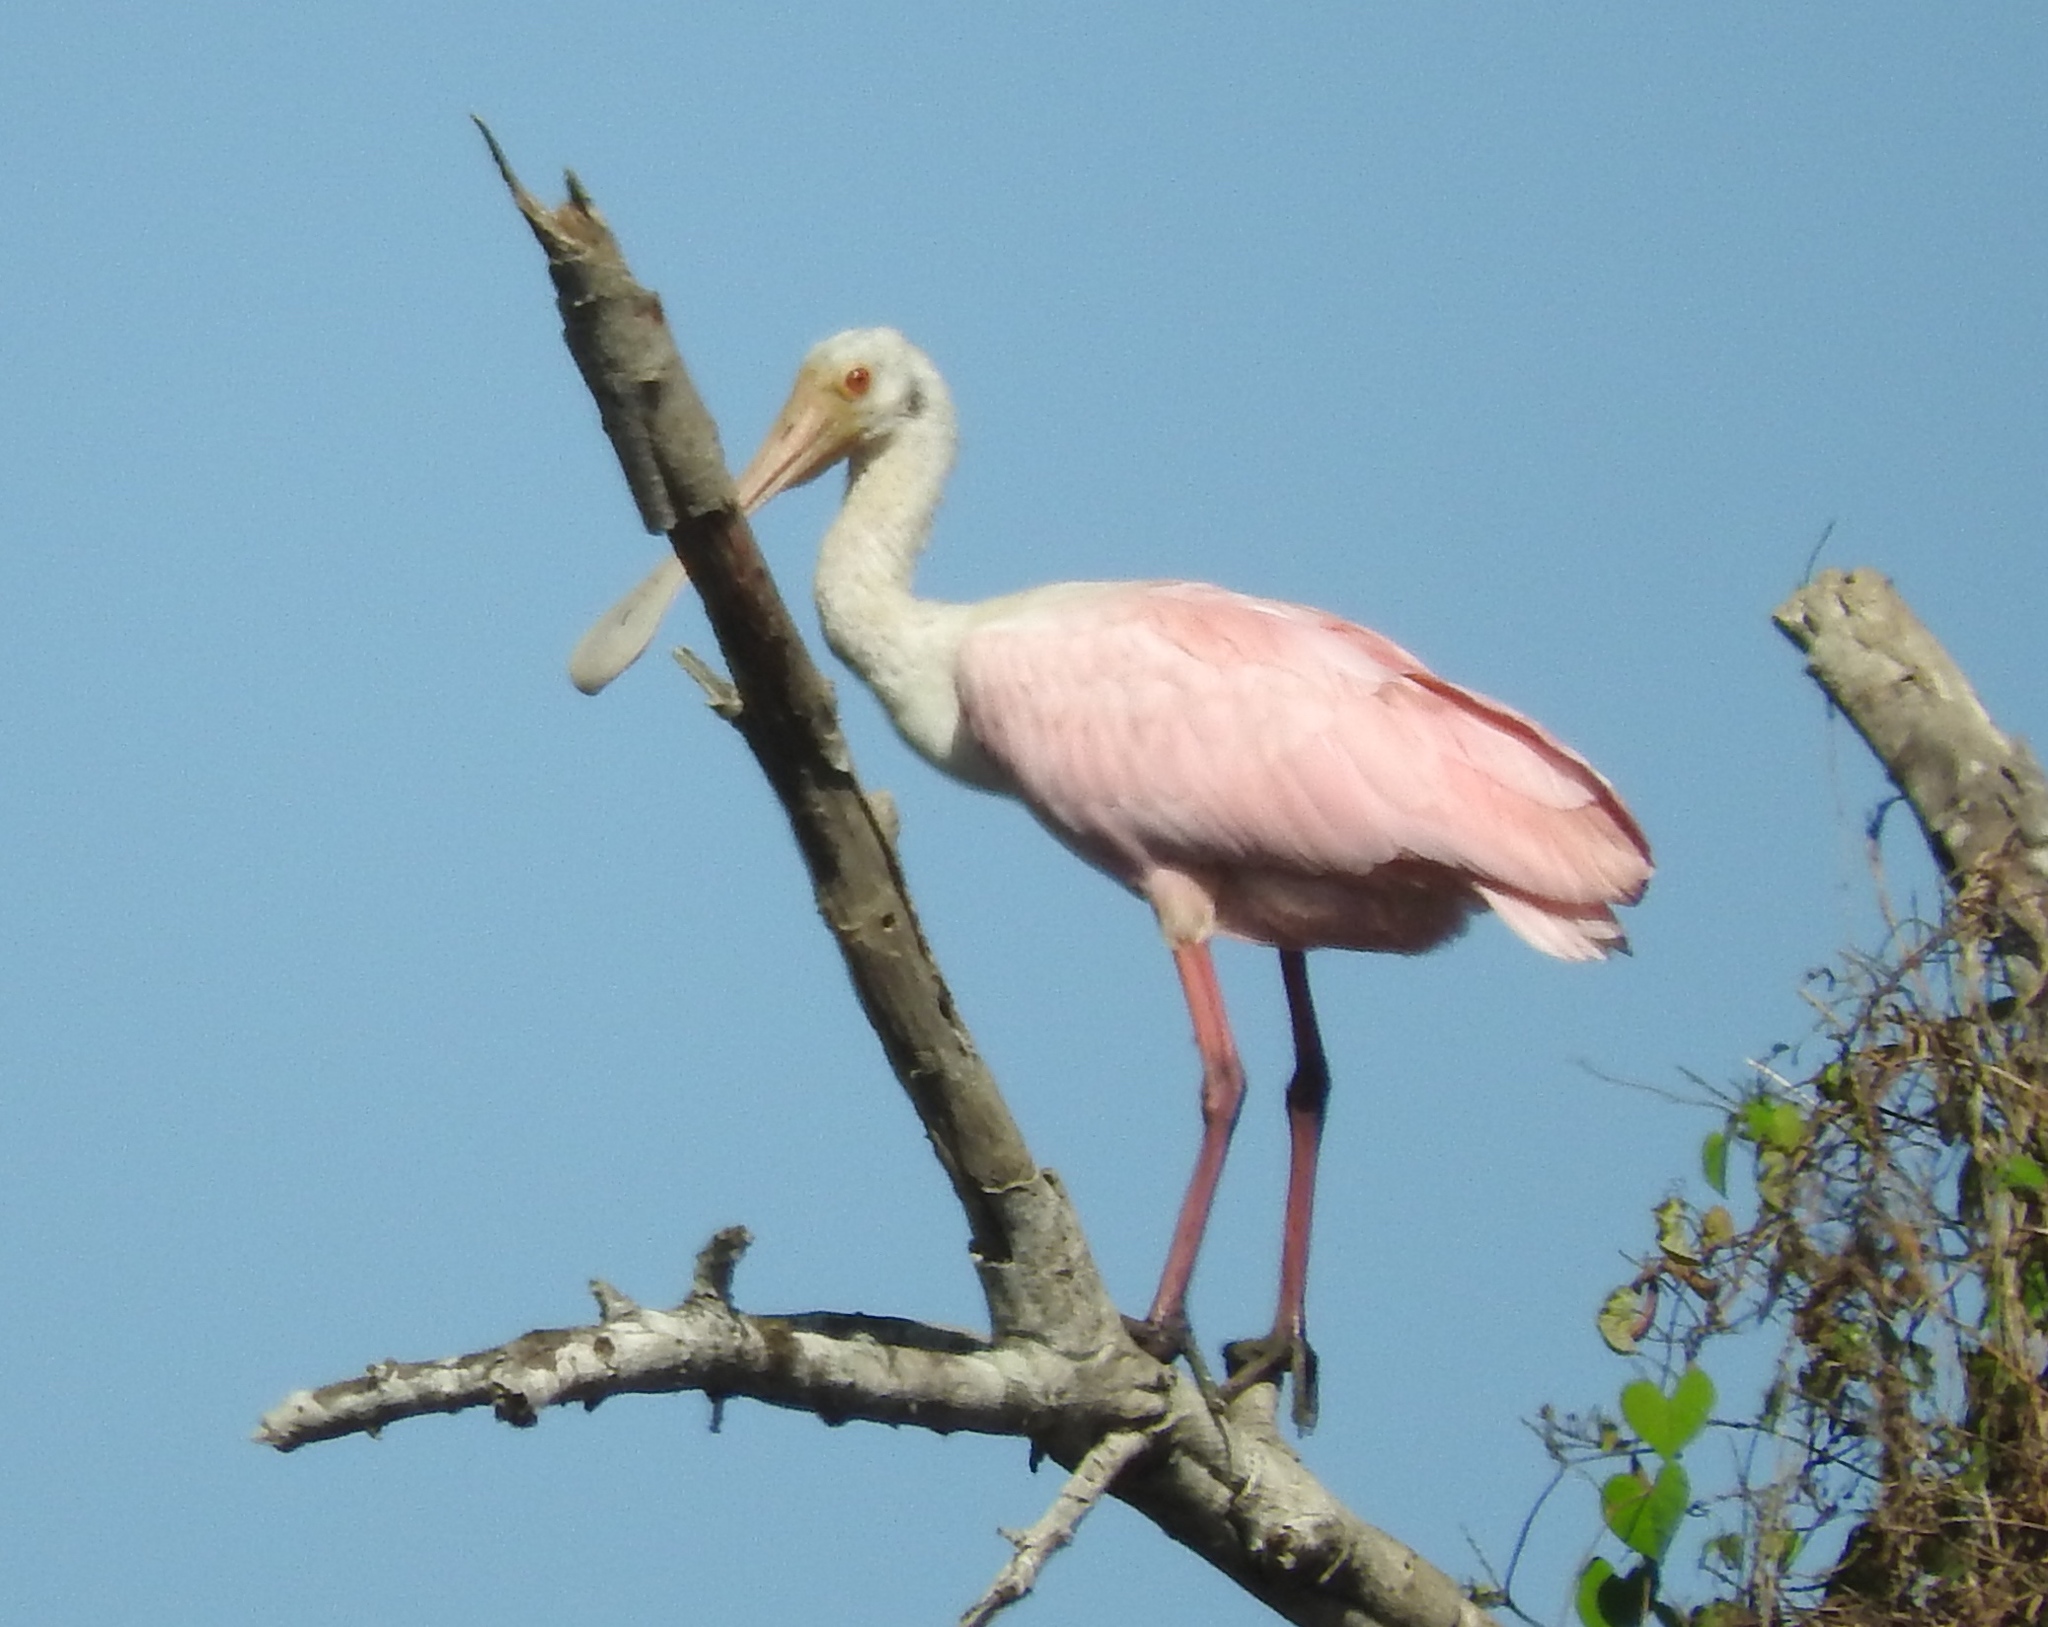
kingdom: Animalia
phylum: Chordata
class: Aves
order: Pelecaniformes
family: Threskiornithidae
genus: Platalea
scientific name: Platalea ajaja
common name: Roseate spoonbill
